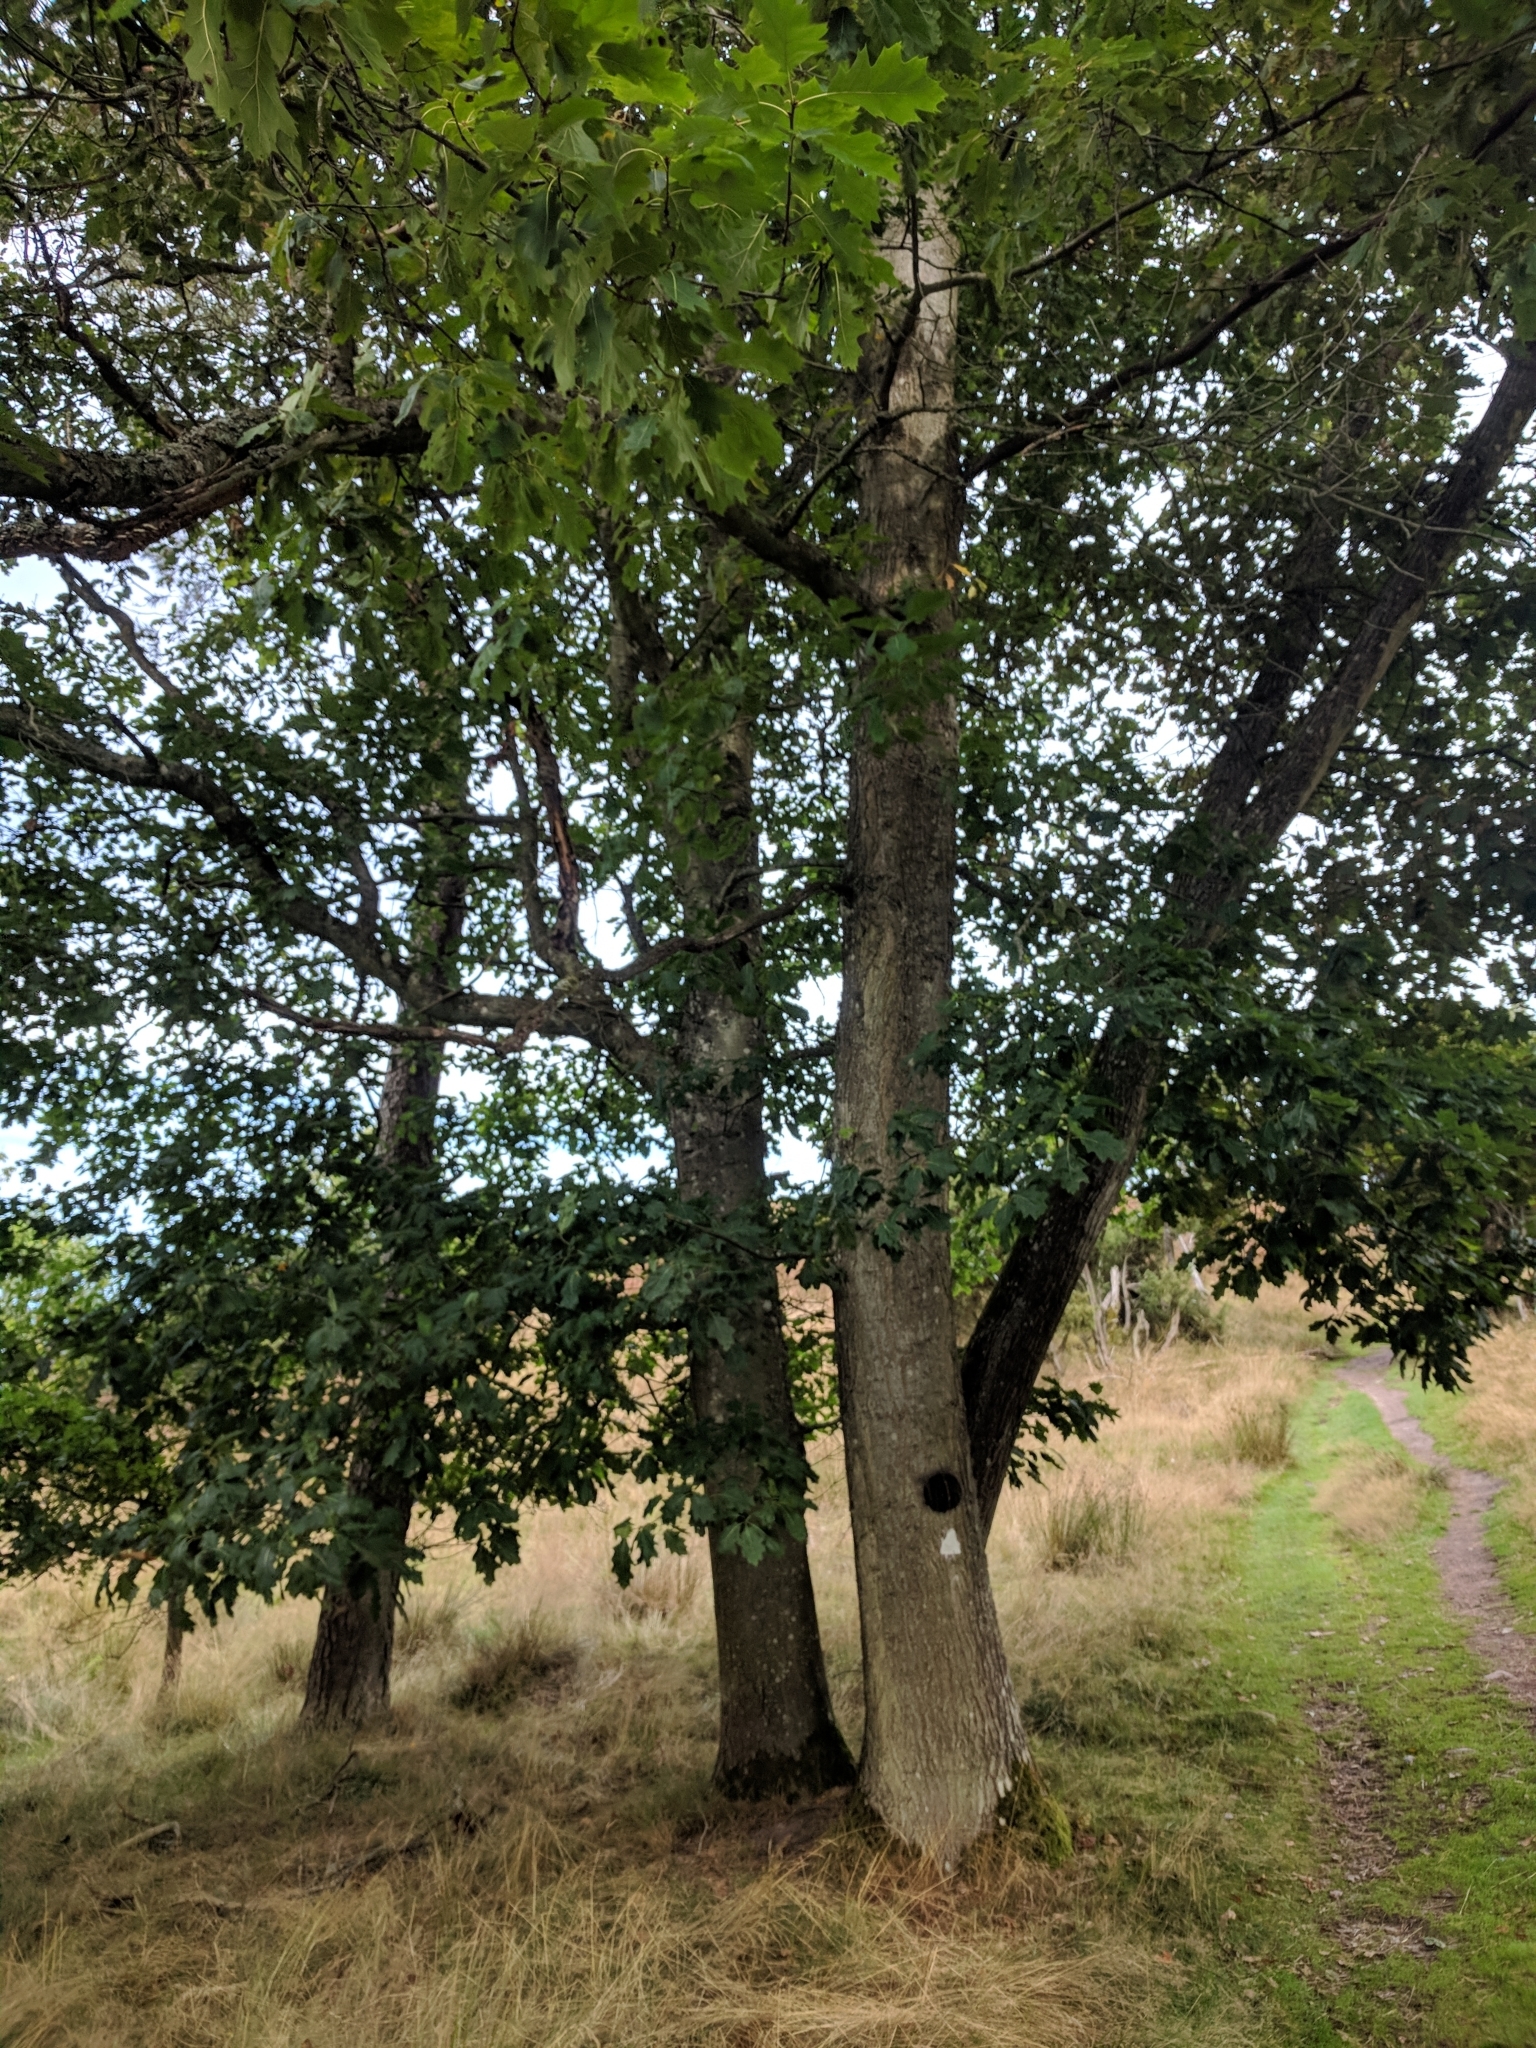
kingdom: Plantae
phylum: Tracheophyta
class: Magnoliopsida
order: Fagales
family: Fagaceae
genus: Quercus
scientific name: Quercus rubra
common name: Red oak
